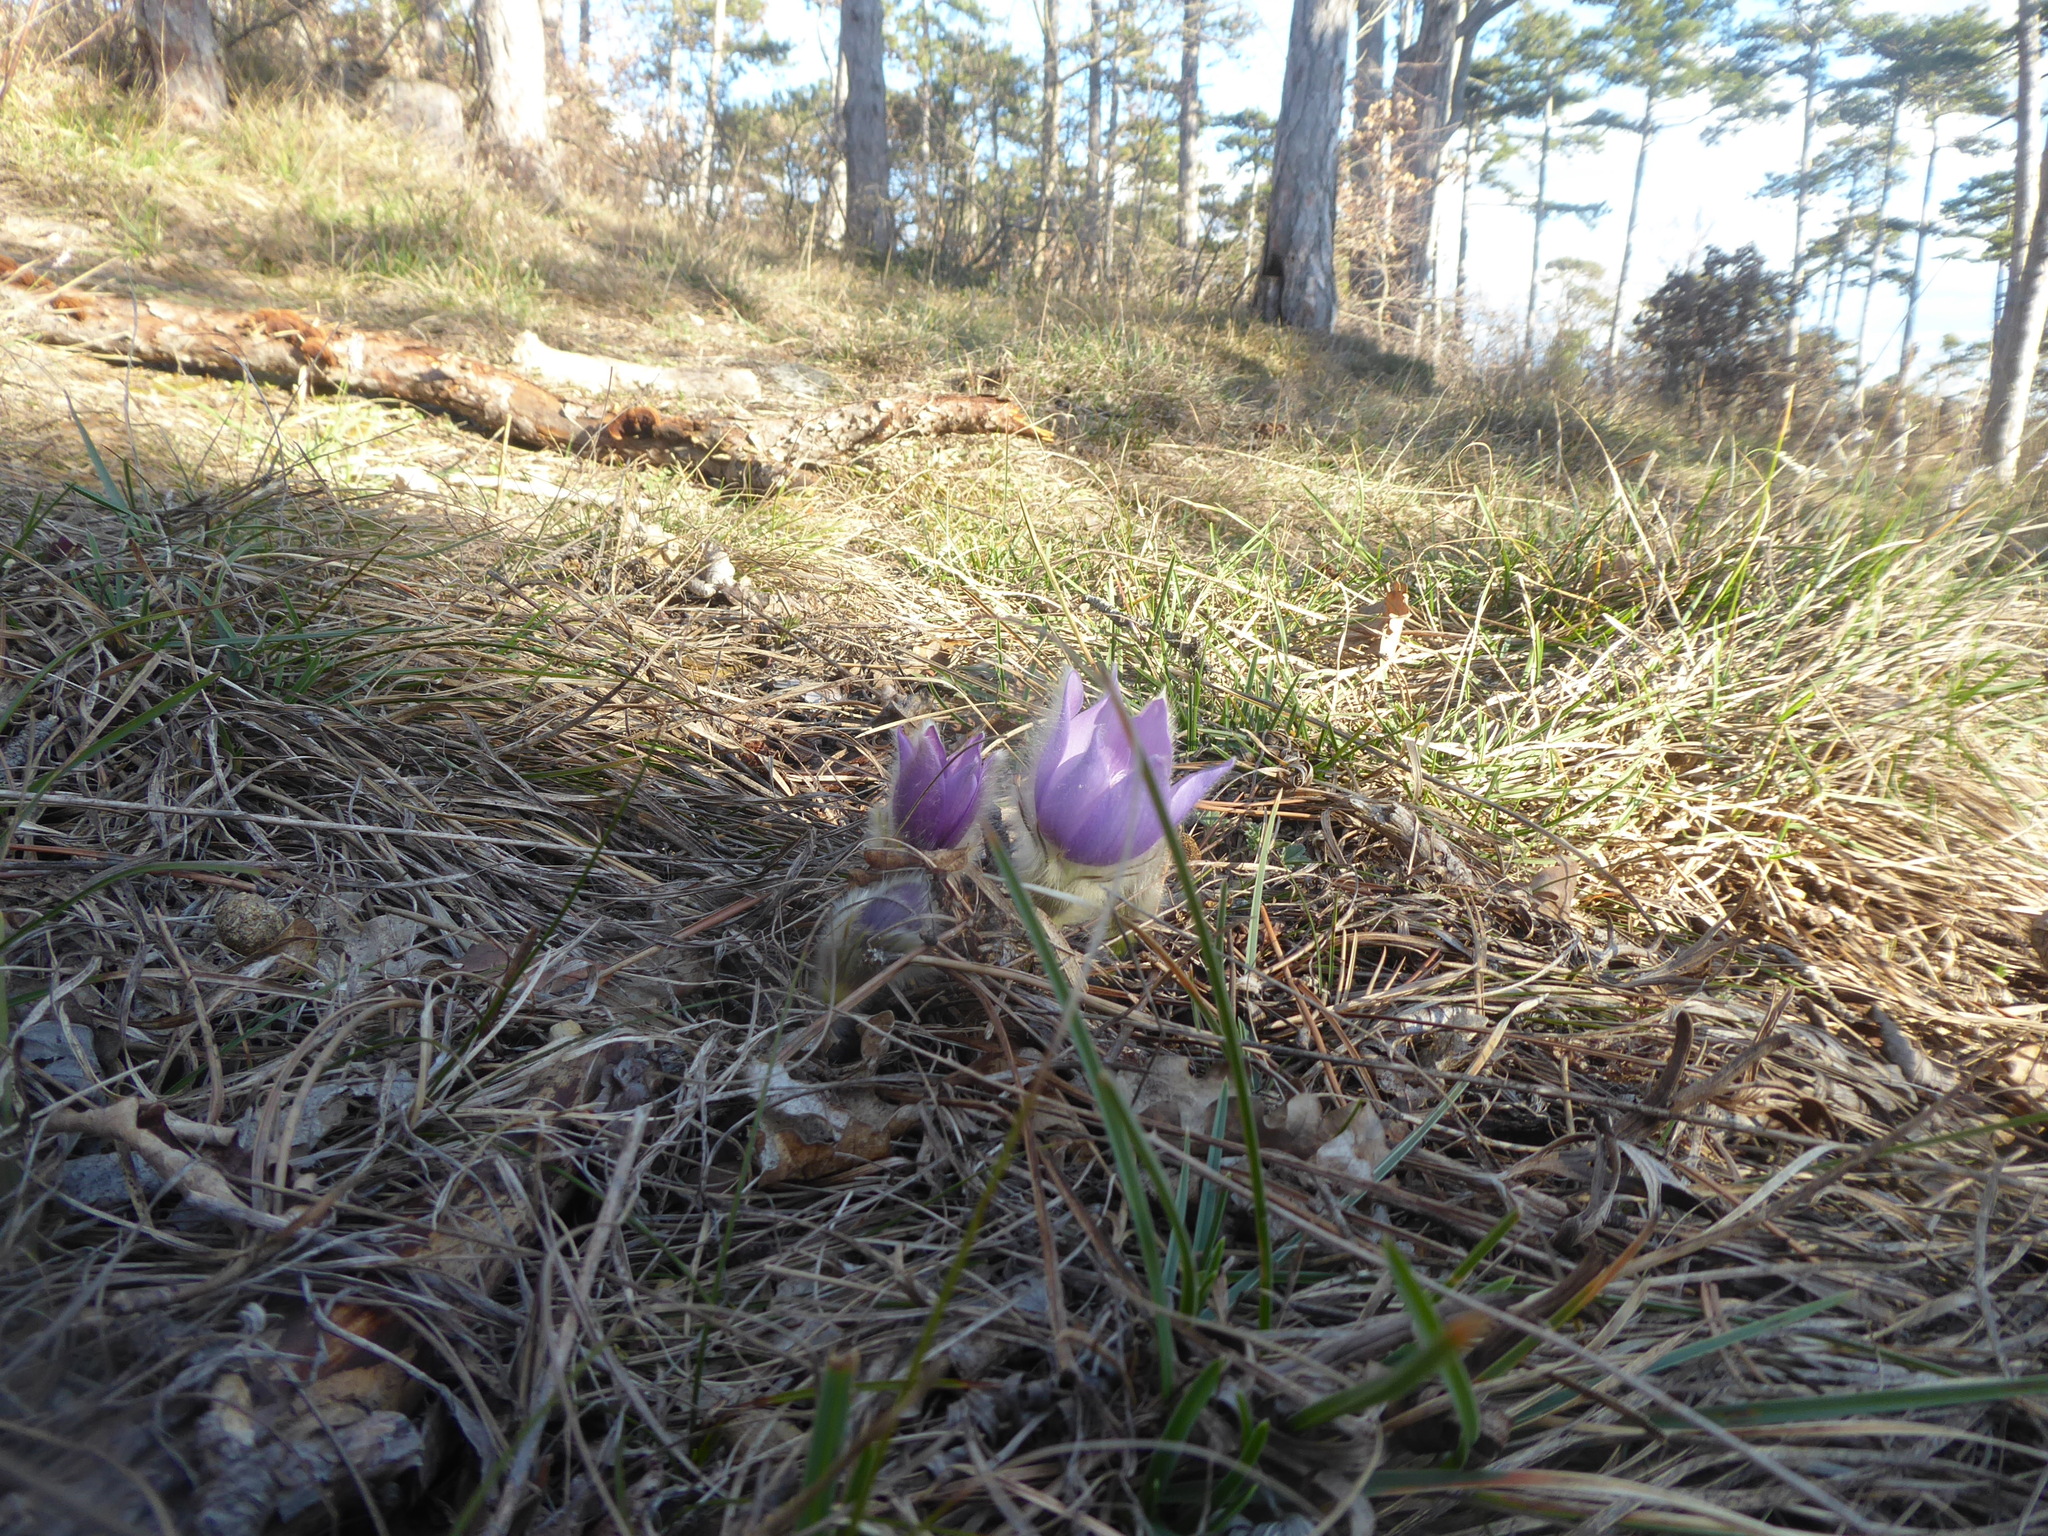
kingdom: Plantae
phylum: Tracheophyta
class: Magnoliopsida
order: Ranunculales
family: Ranunculaceae
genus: Pulsatilla
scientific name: Pulsatilla grandis
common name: Greater pasque flower
